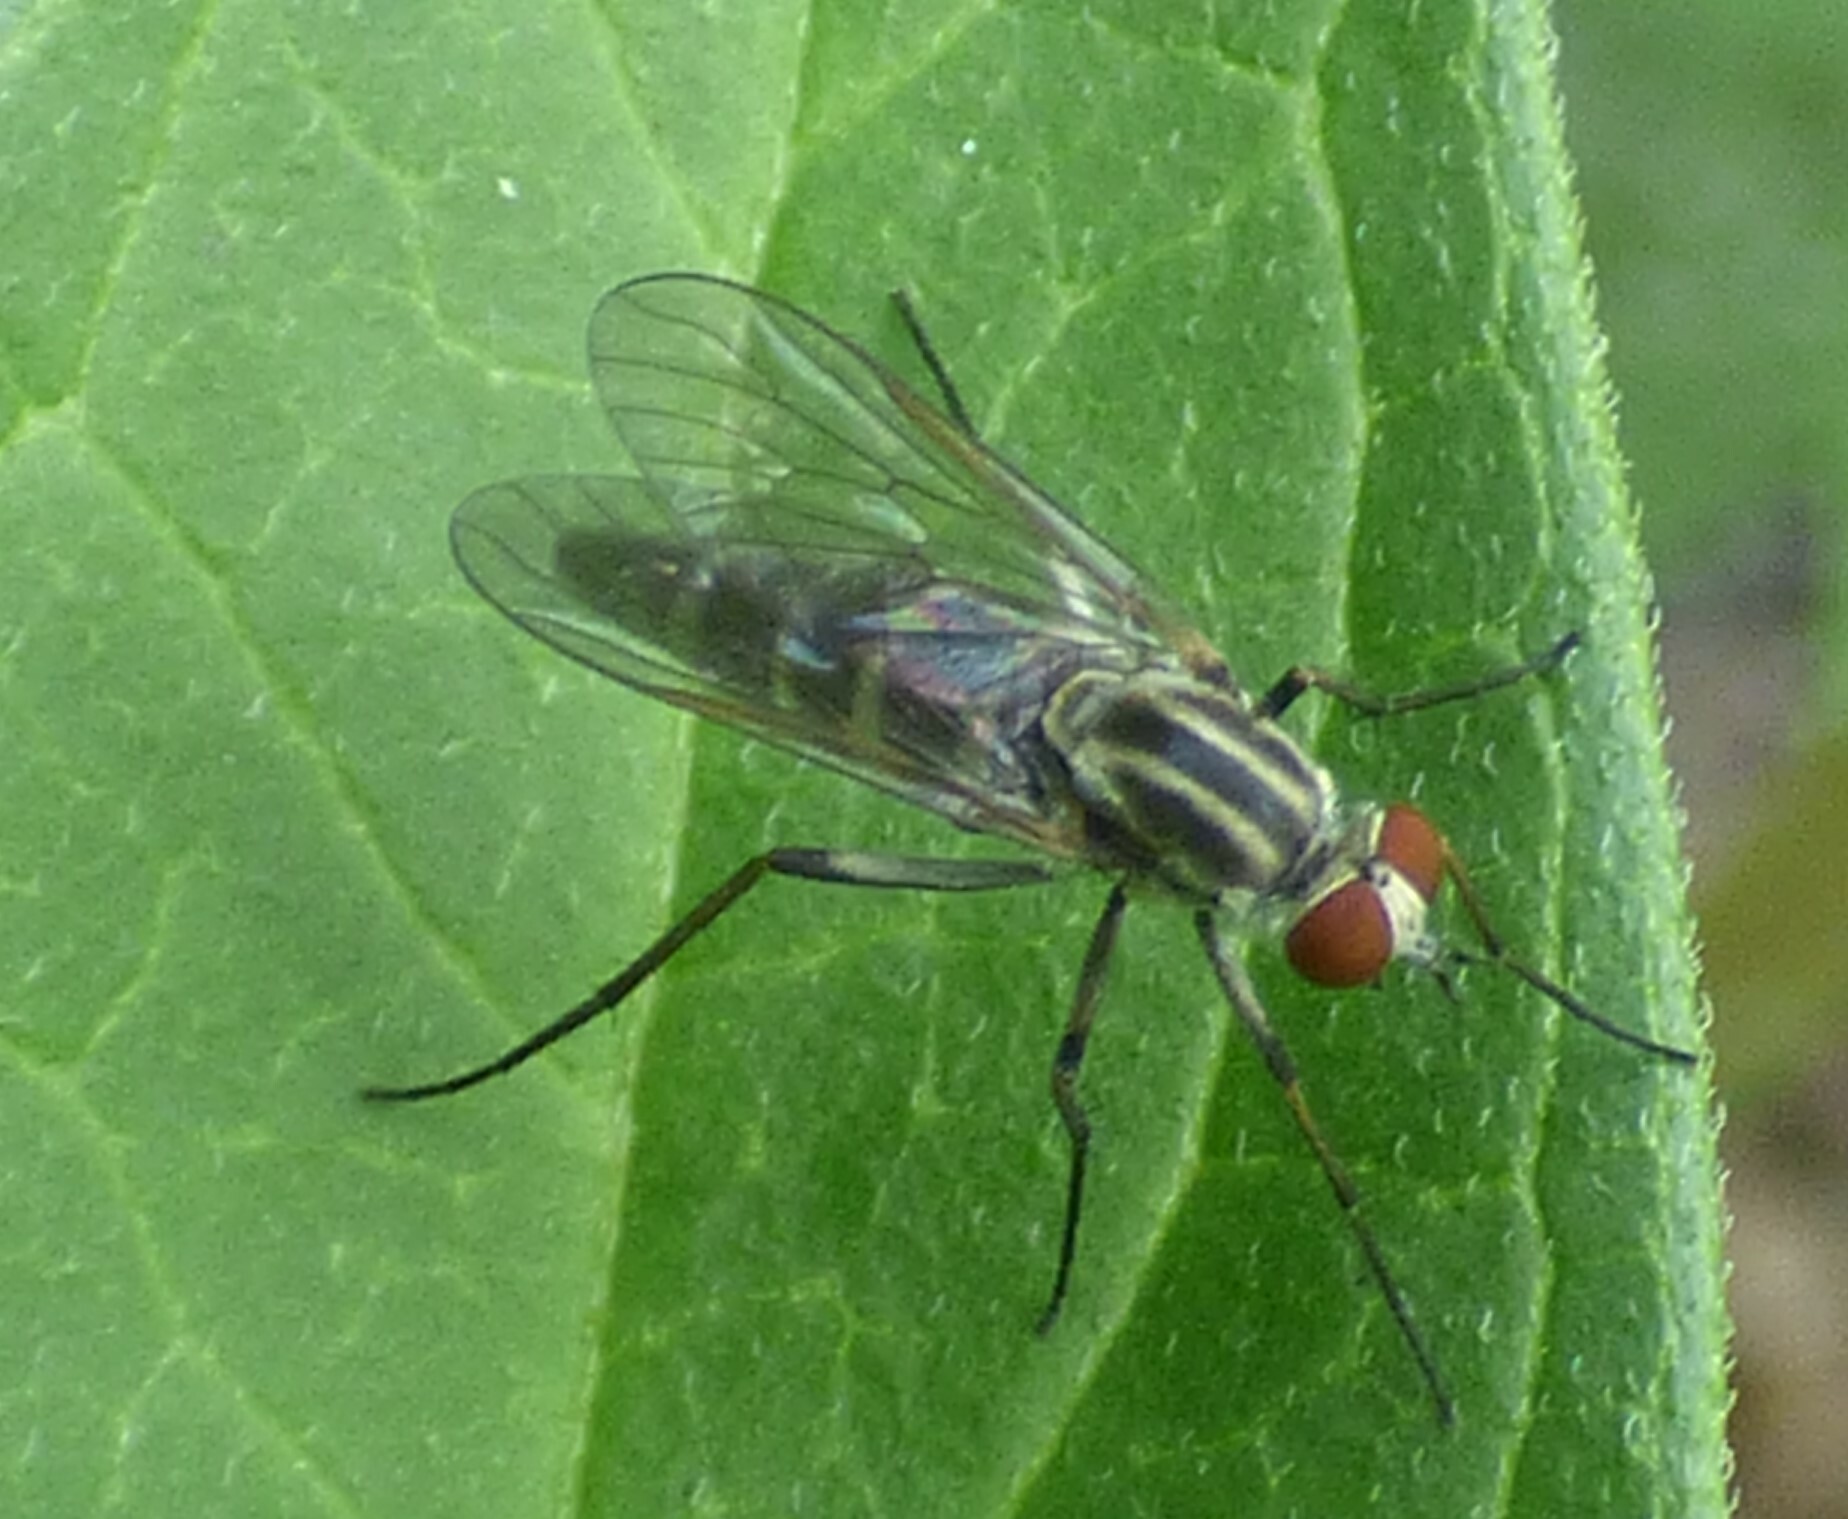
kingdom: Animalia
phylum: Arthropoda
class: Insecta
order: Diptera
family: Therevidae
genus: Penniverpa
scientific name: Penniverpa festina
